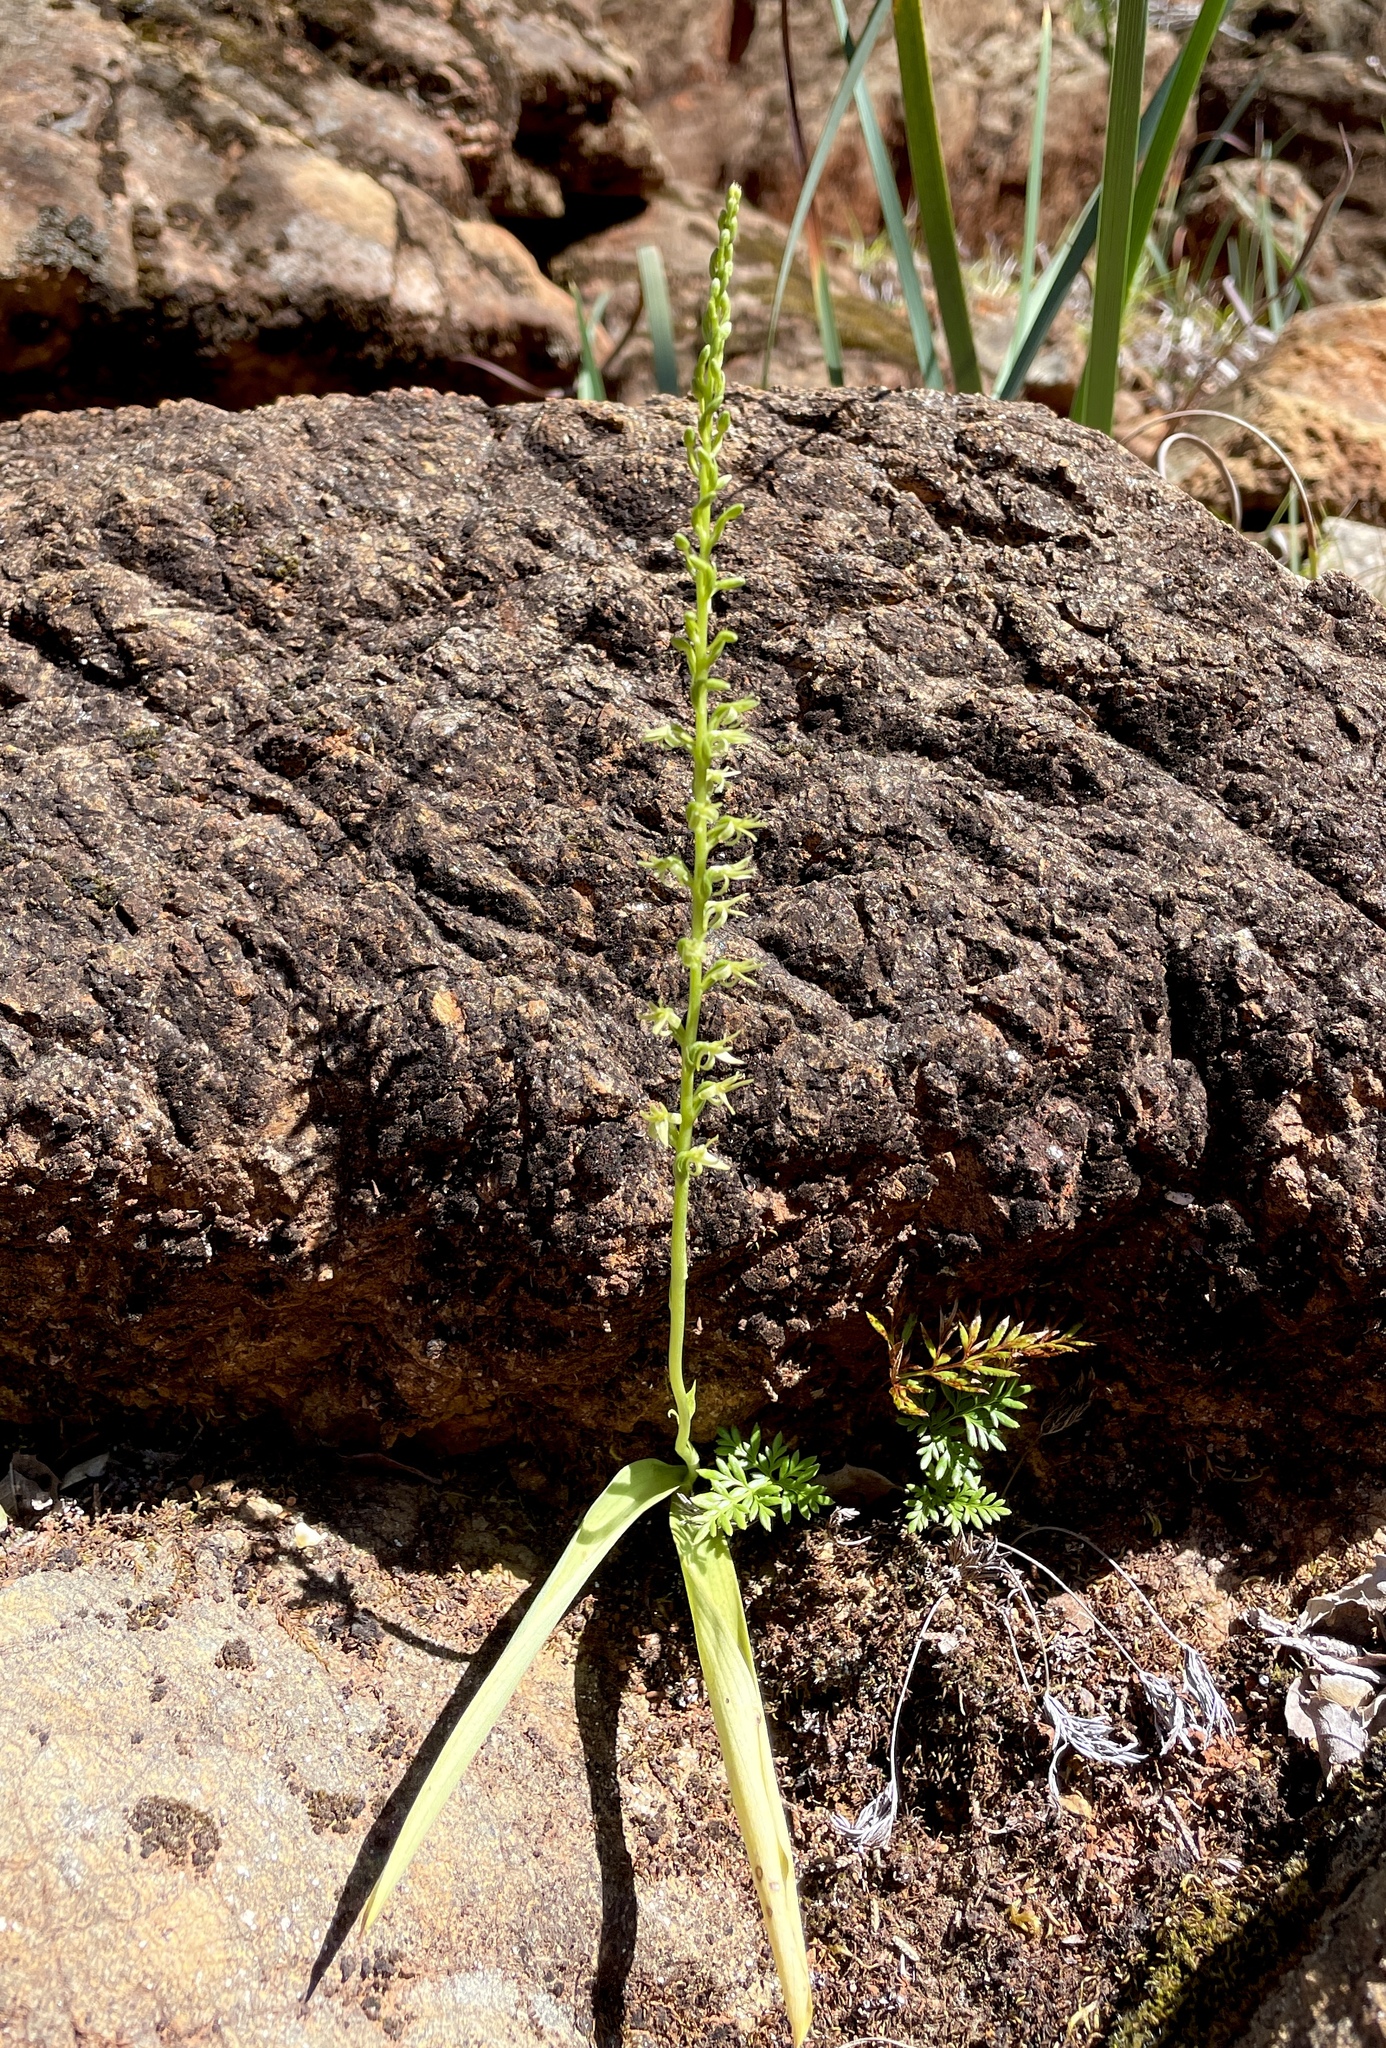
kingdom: Plantae
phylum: Tracheophyta
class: Liliopsida
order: Asparagales
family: Orchidaceae
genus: Platanthera
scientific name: Platanthera leptopetala
